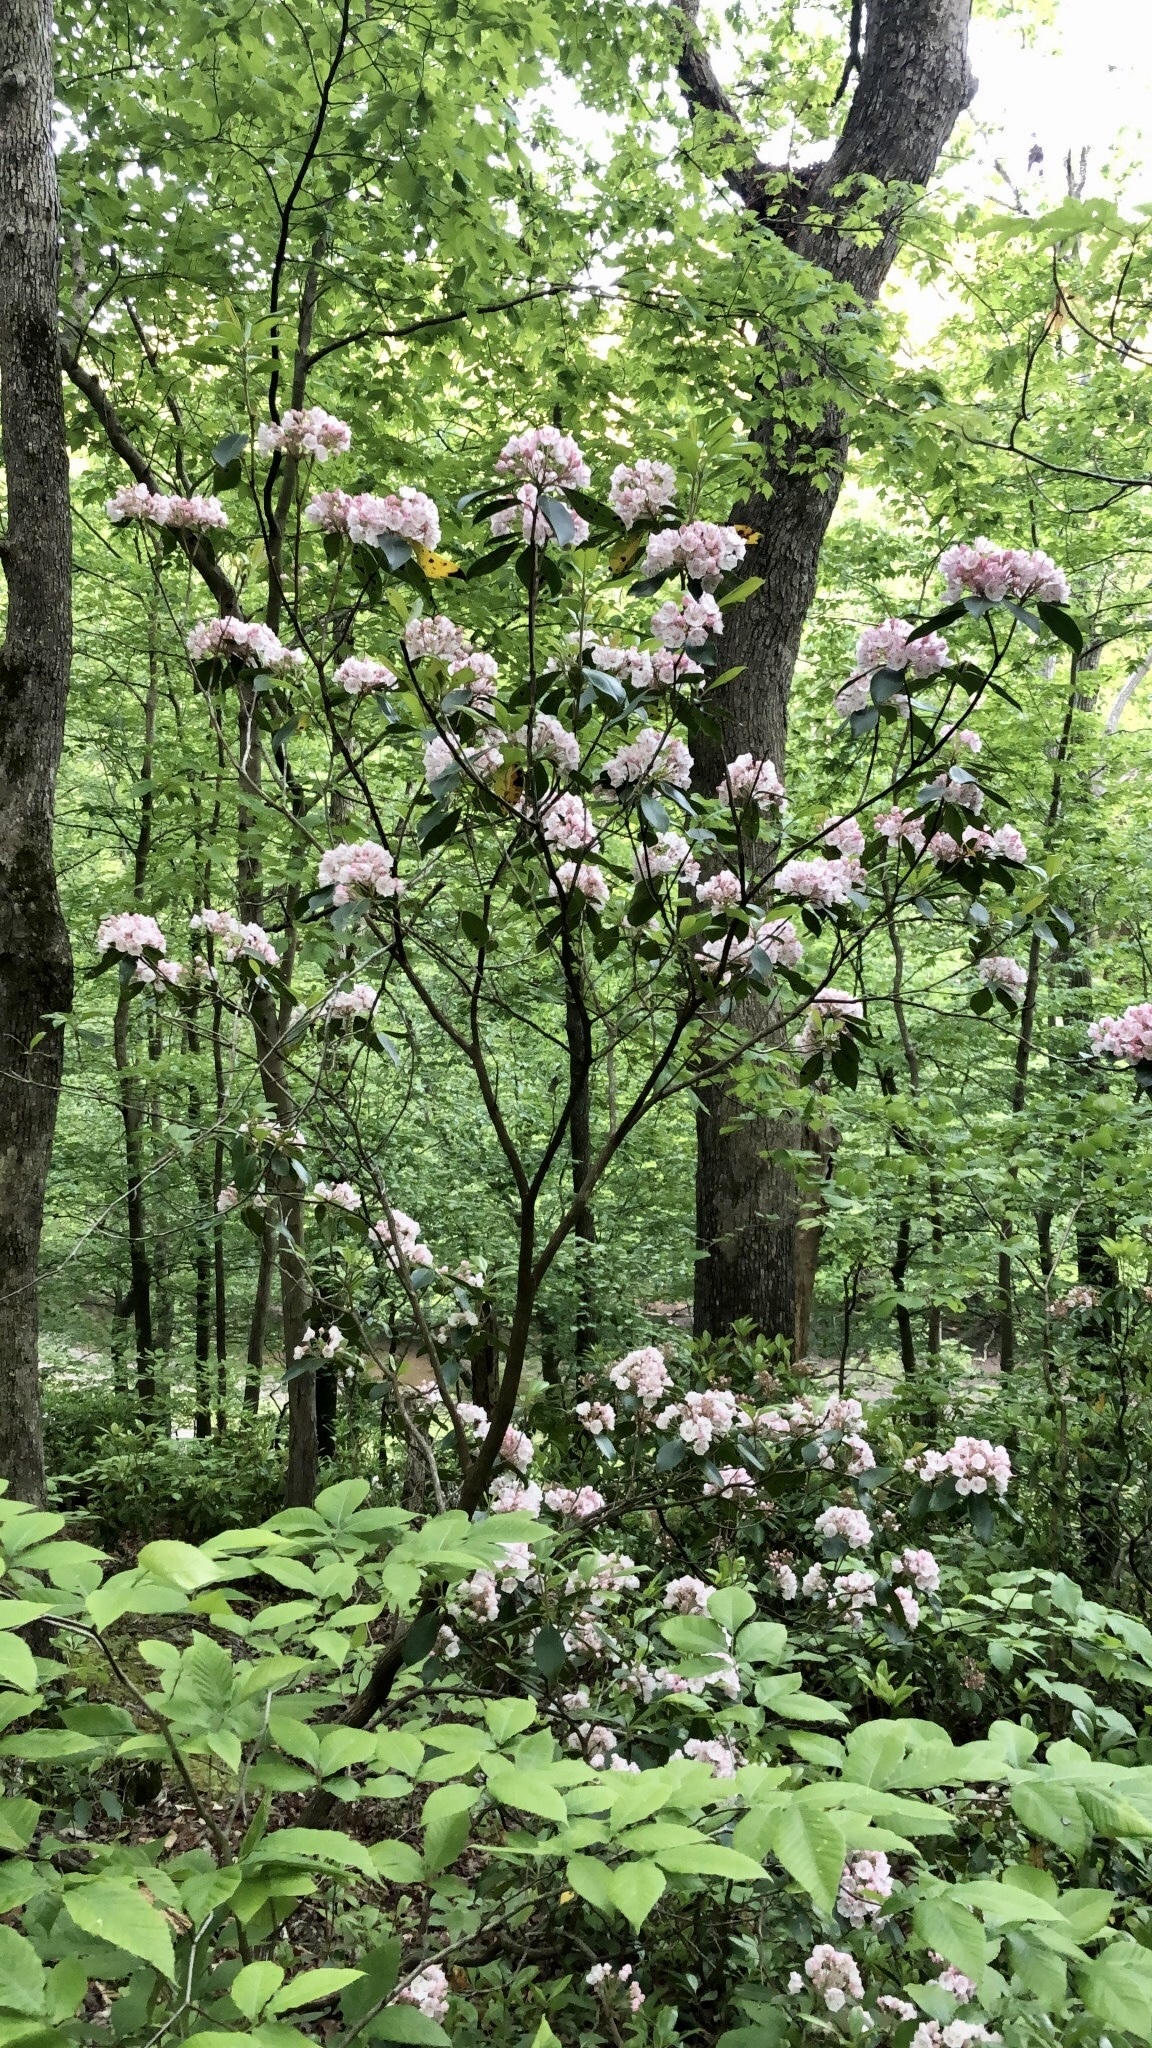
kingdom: Plantae
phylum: Tracheophyta
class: Magnoliopsida
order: Ericales
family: Ericaceae
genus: Kalmia
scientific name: Kalmia latifolia
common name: Mountain-laurel
